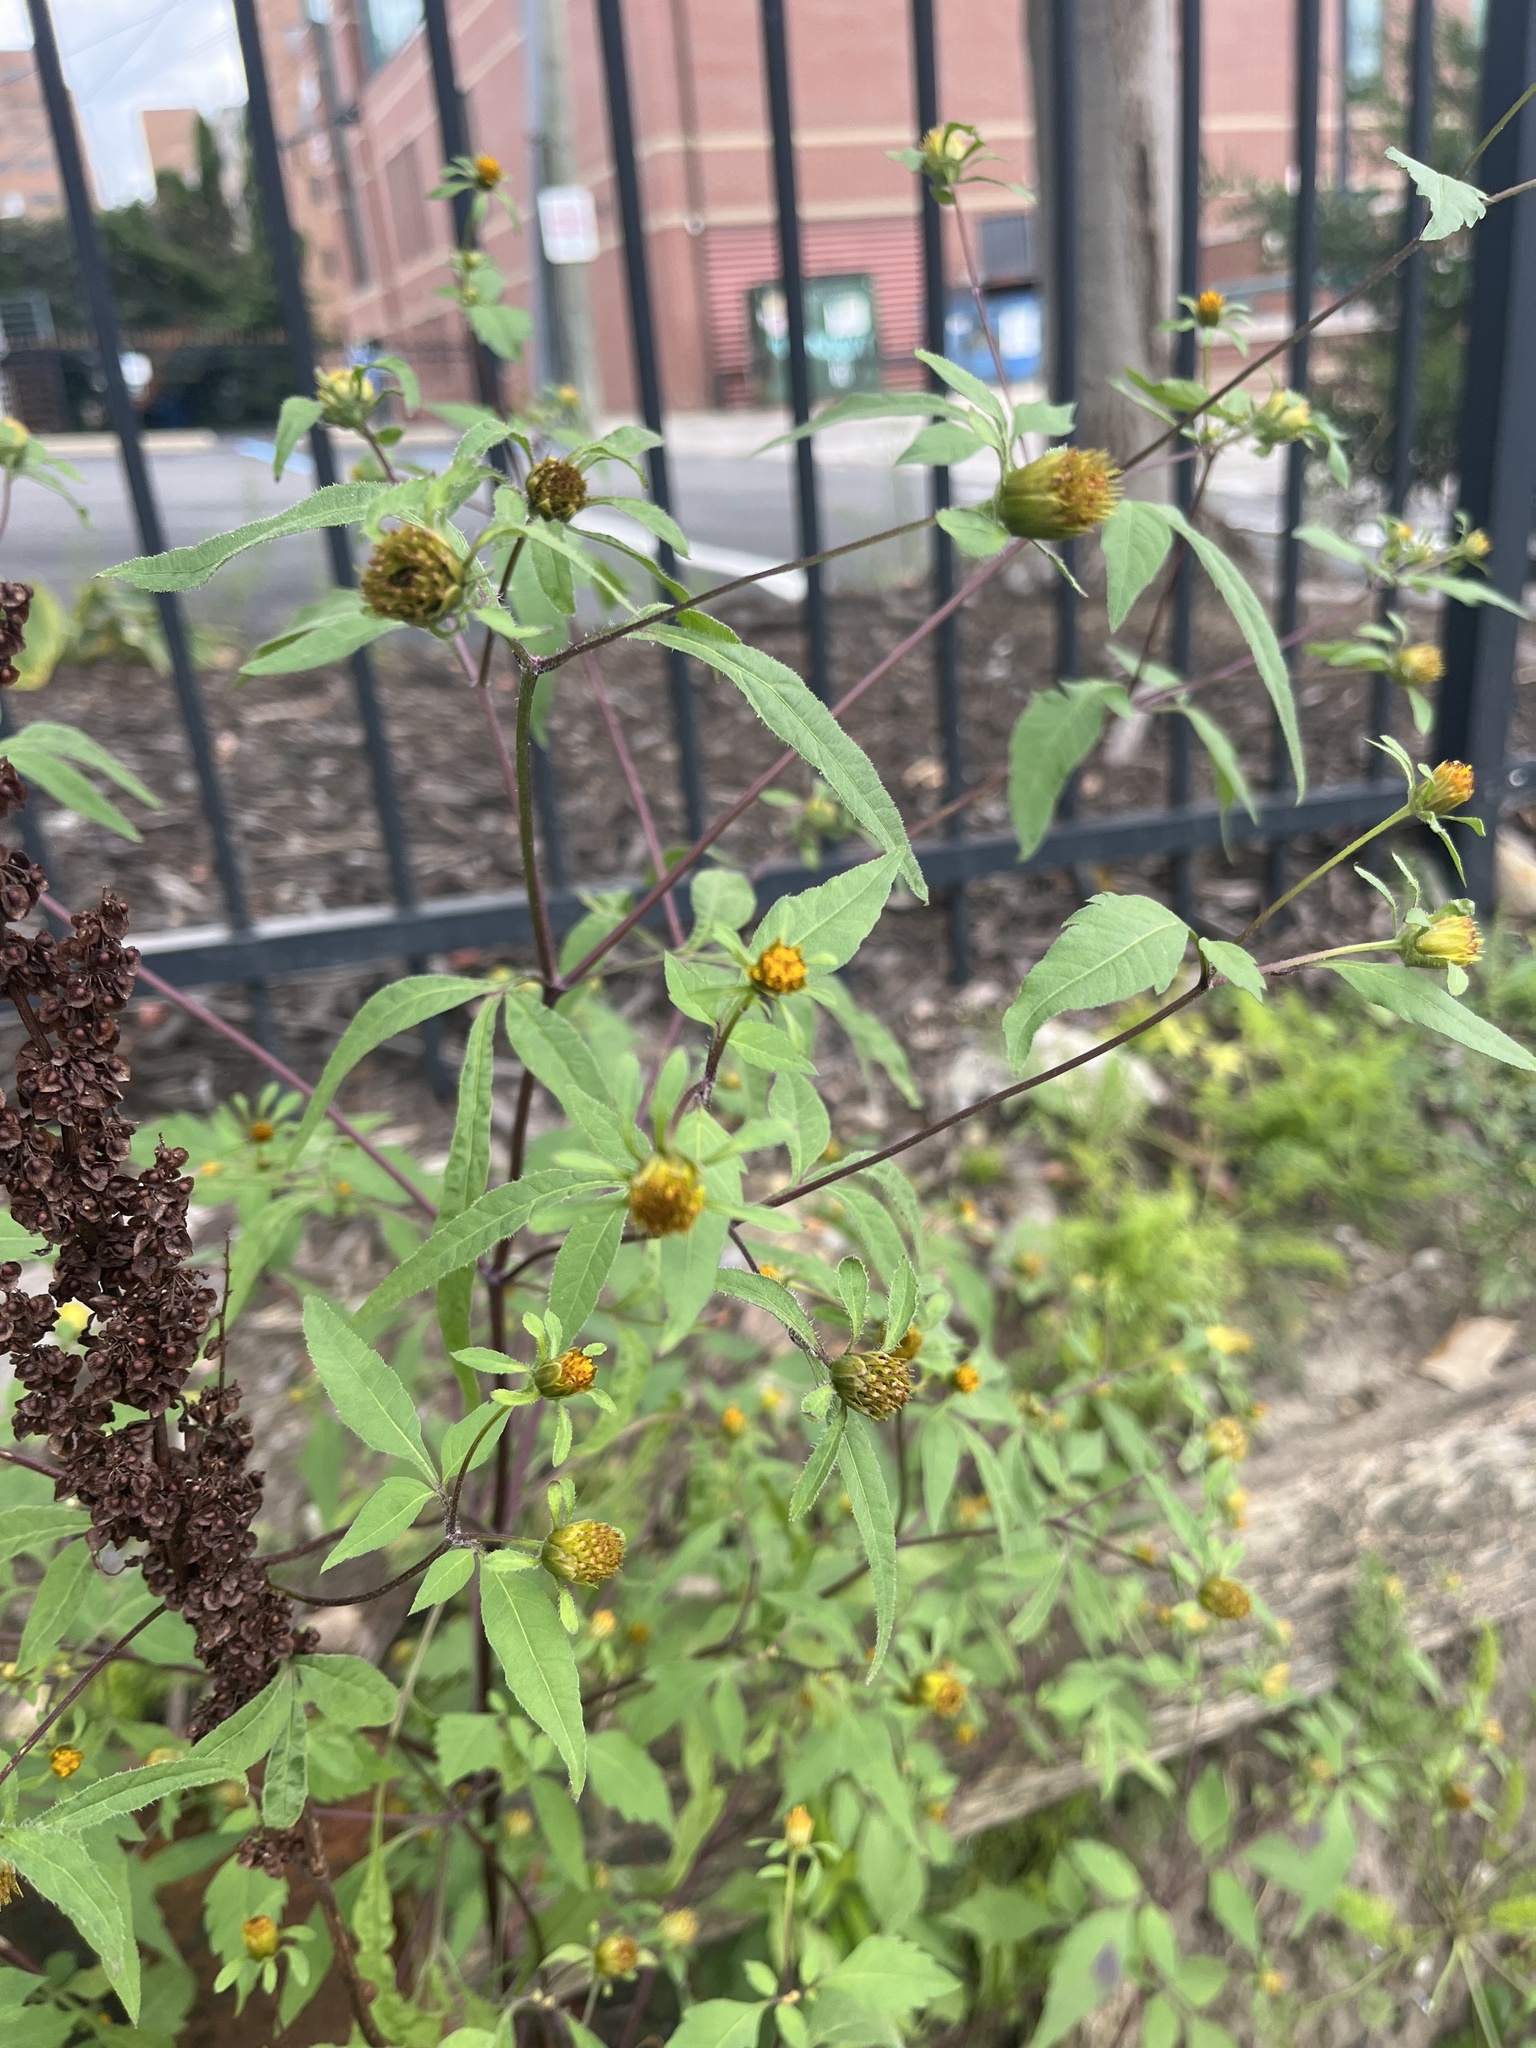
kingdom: Plantae
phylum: Tracheophyta
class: Magnoliopsida
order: Asterales
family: Asteraceae
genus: Bidens
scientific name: Bidens frondosa
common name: Beggarticks
